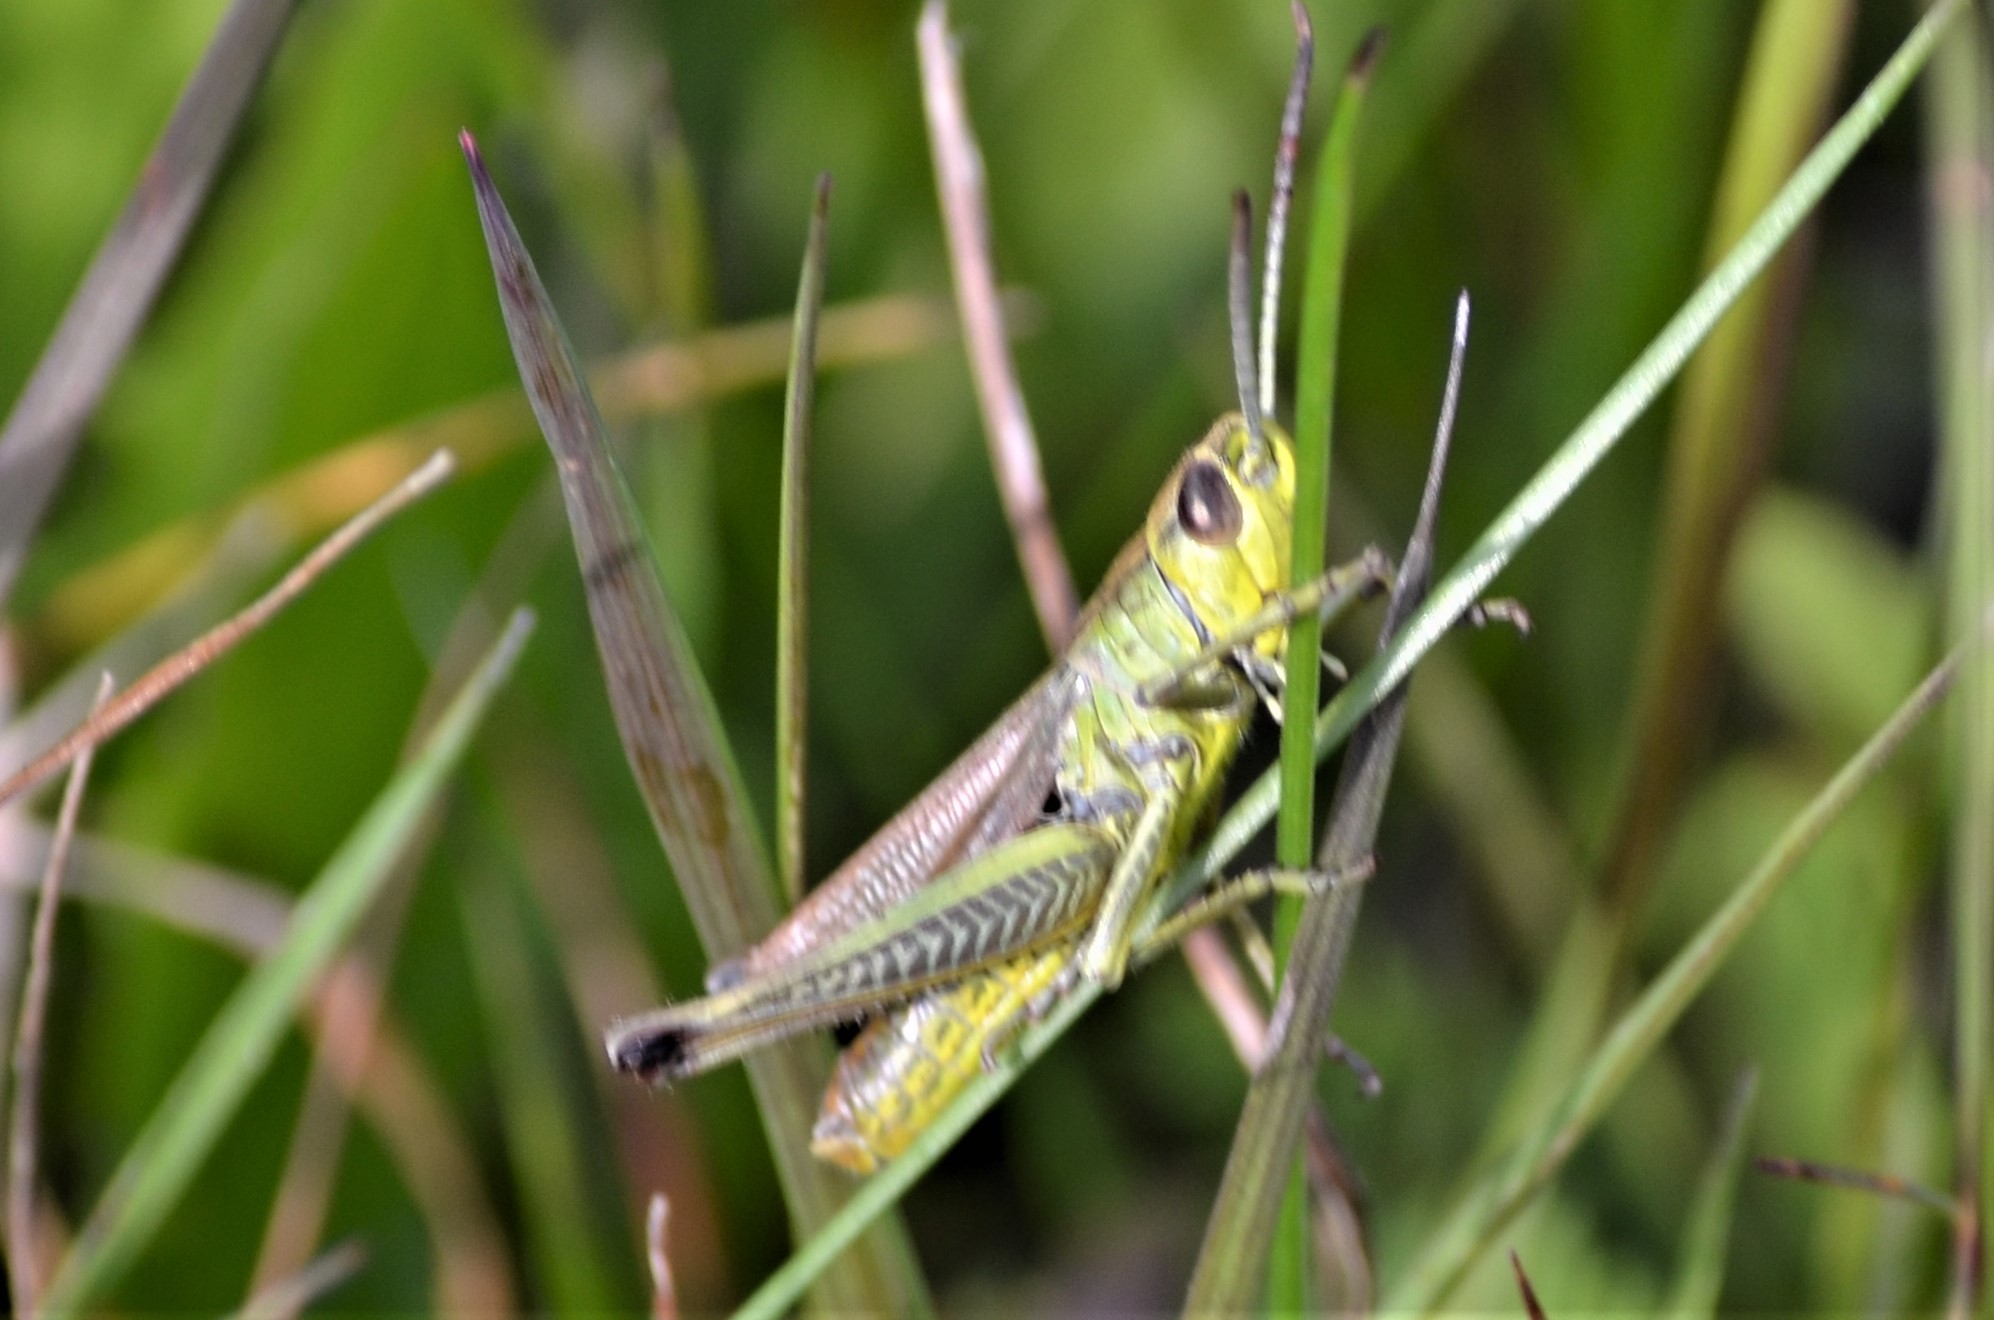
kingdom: Animalia
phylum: Arthropoda
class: Insecta
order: Orthoptera
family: Acrididae
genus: Pseudochorthippus
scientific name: Pseudochorthippus parallelus
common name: Meadow grasshopper
